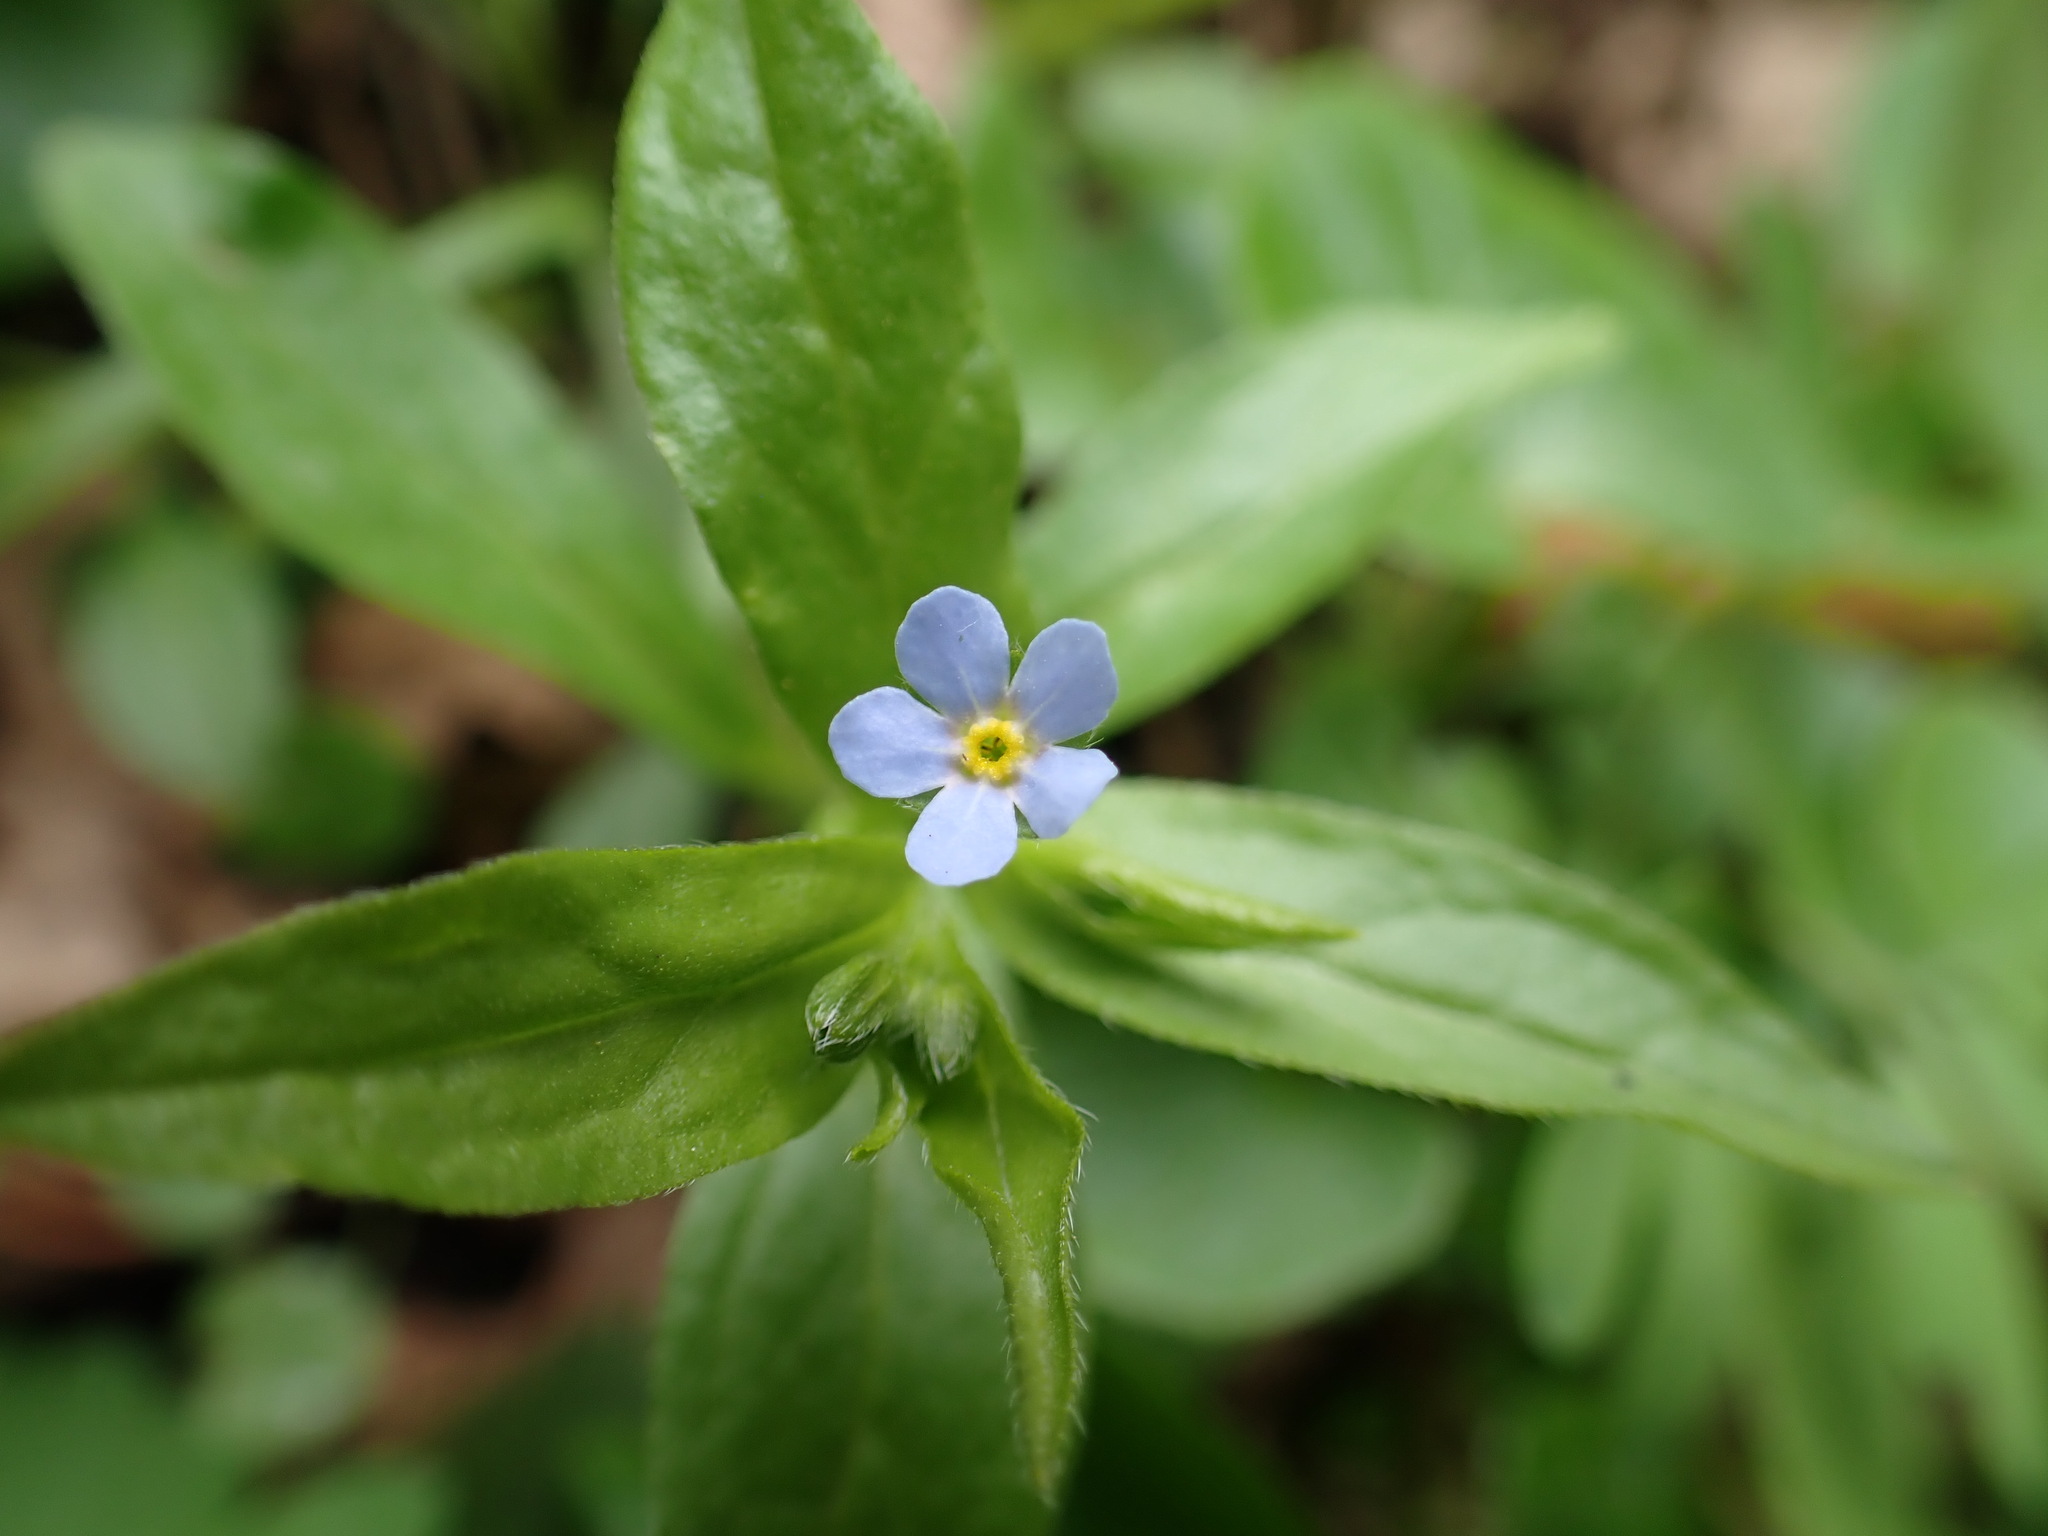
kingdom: Plantae
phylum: Tracheophyta
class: Magnoliopsida
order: Boraginales
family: Boraginaceae
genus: Memoremea
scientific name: Memoremea scorpioides
